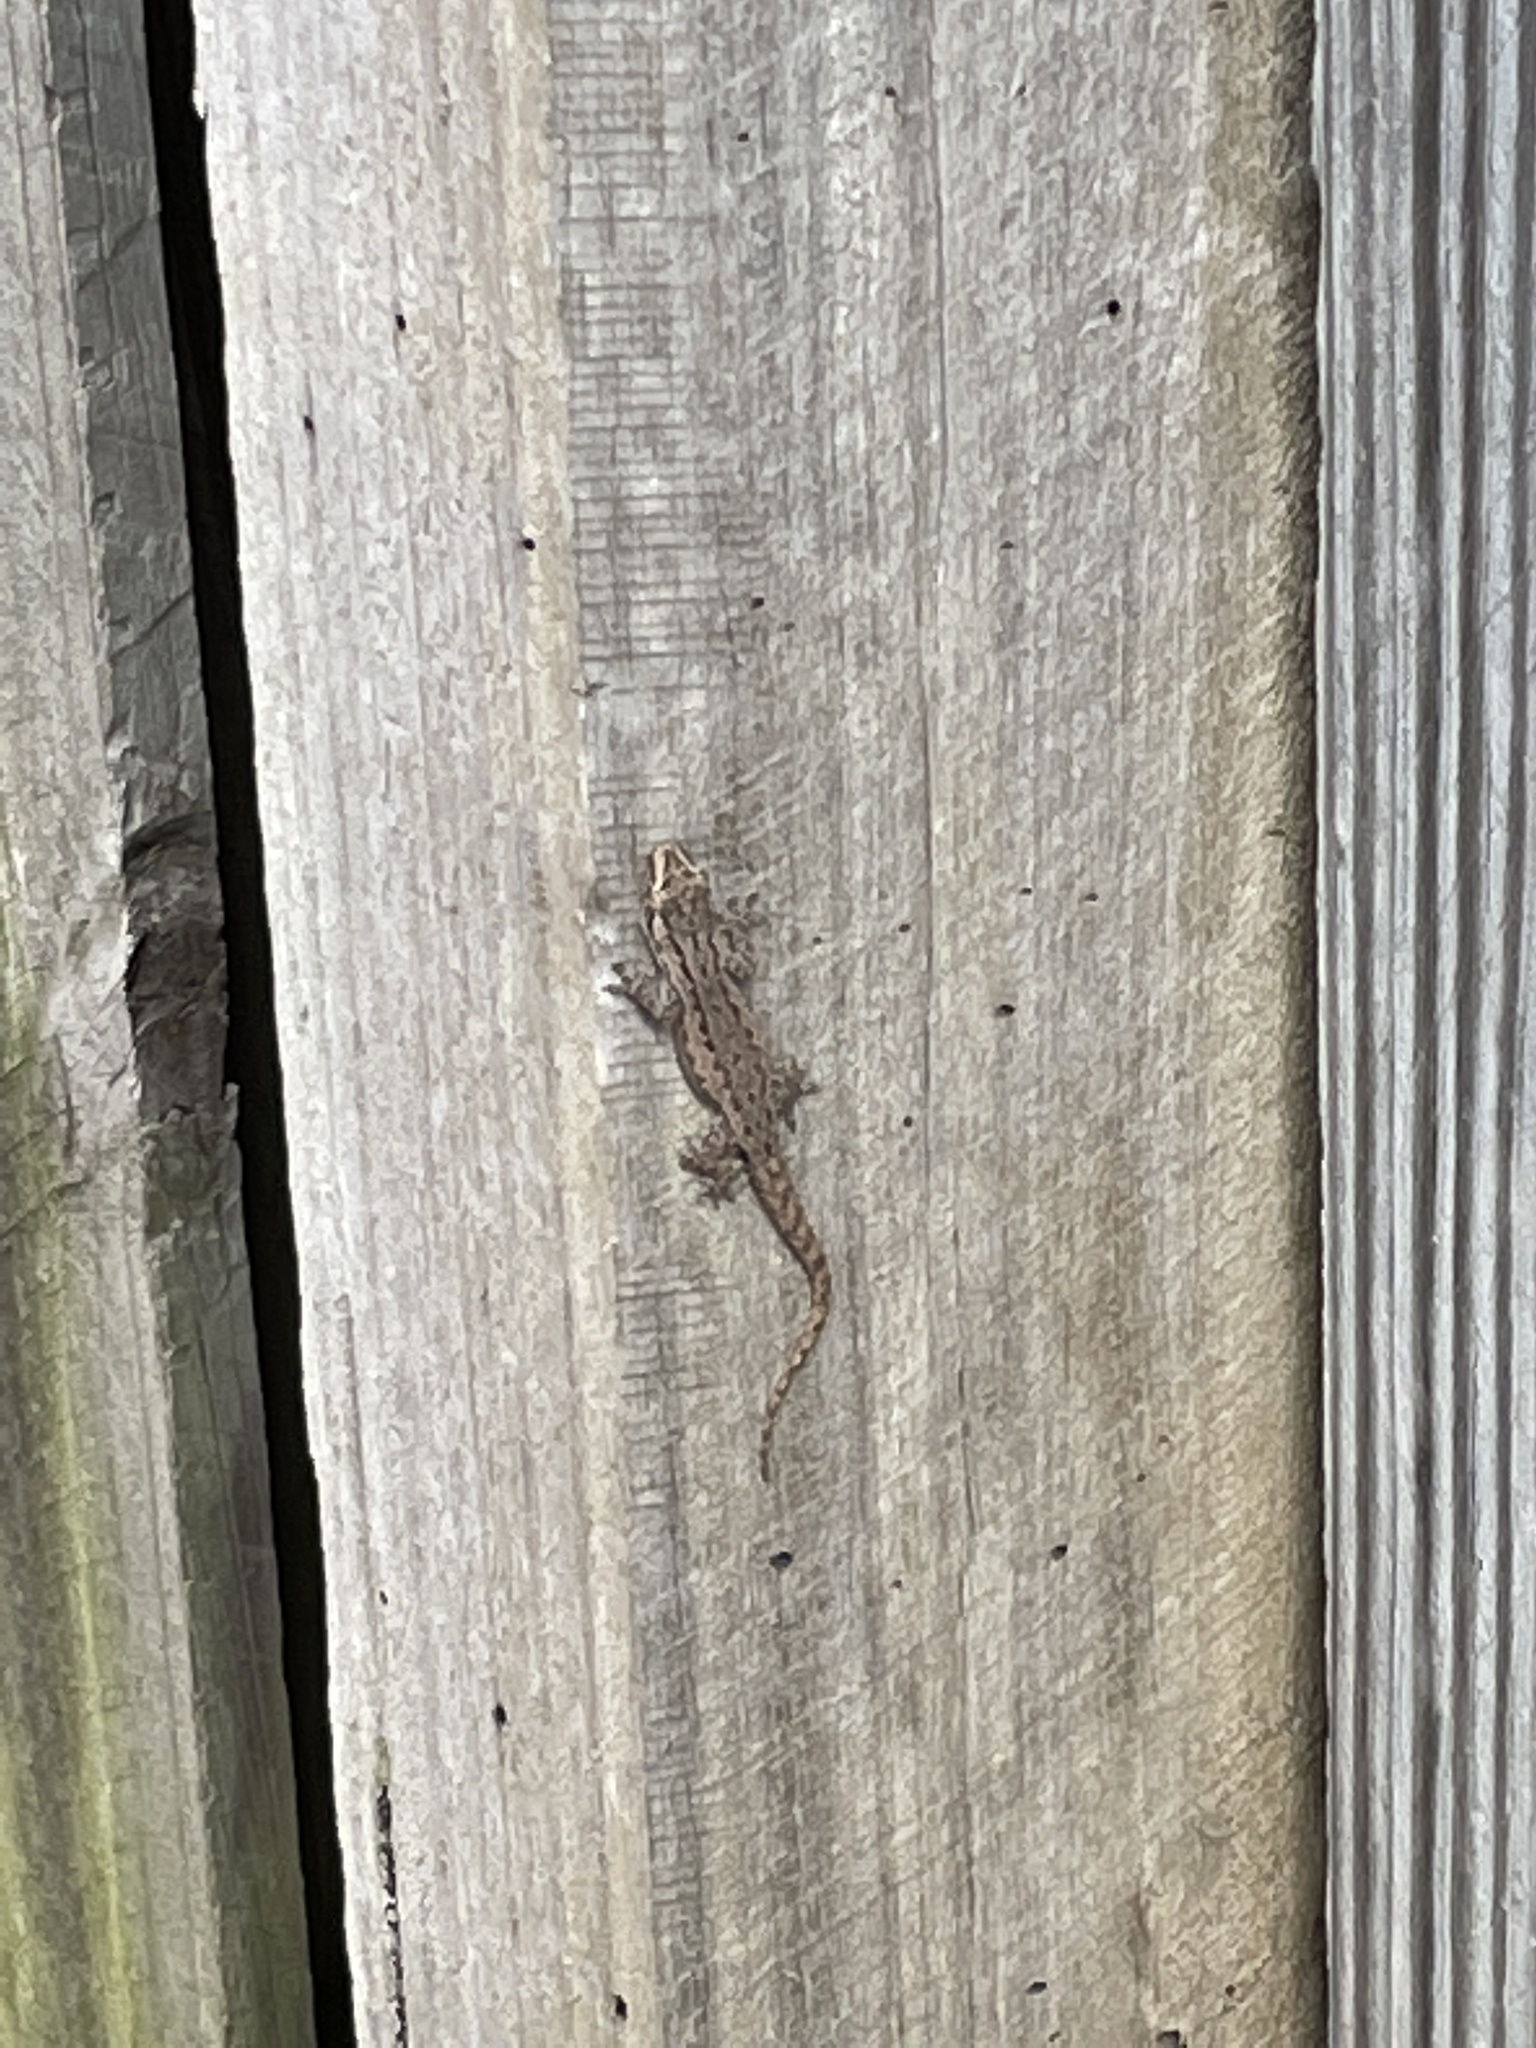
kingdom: Animalia
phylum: Chordata
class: Squamata
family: Gekkonidae
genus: Hemidactylus
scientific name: Hemidactylus frenatus
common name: Common house gecko
